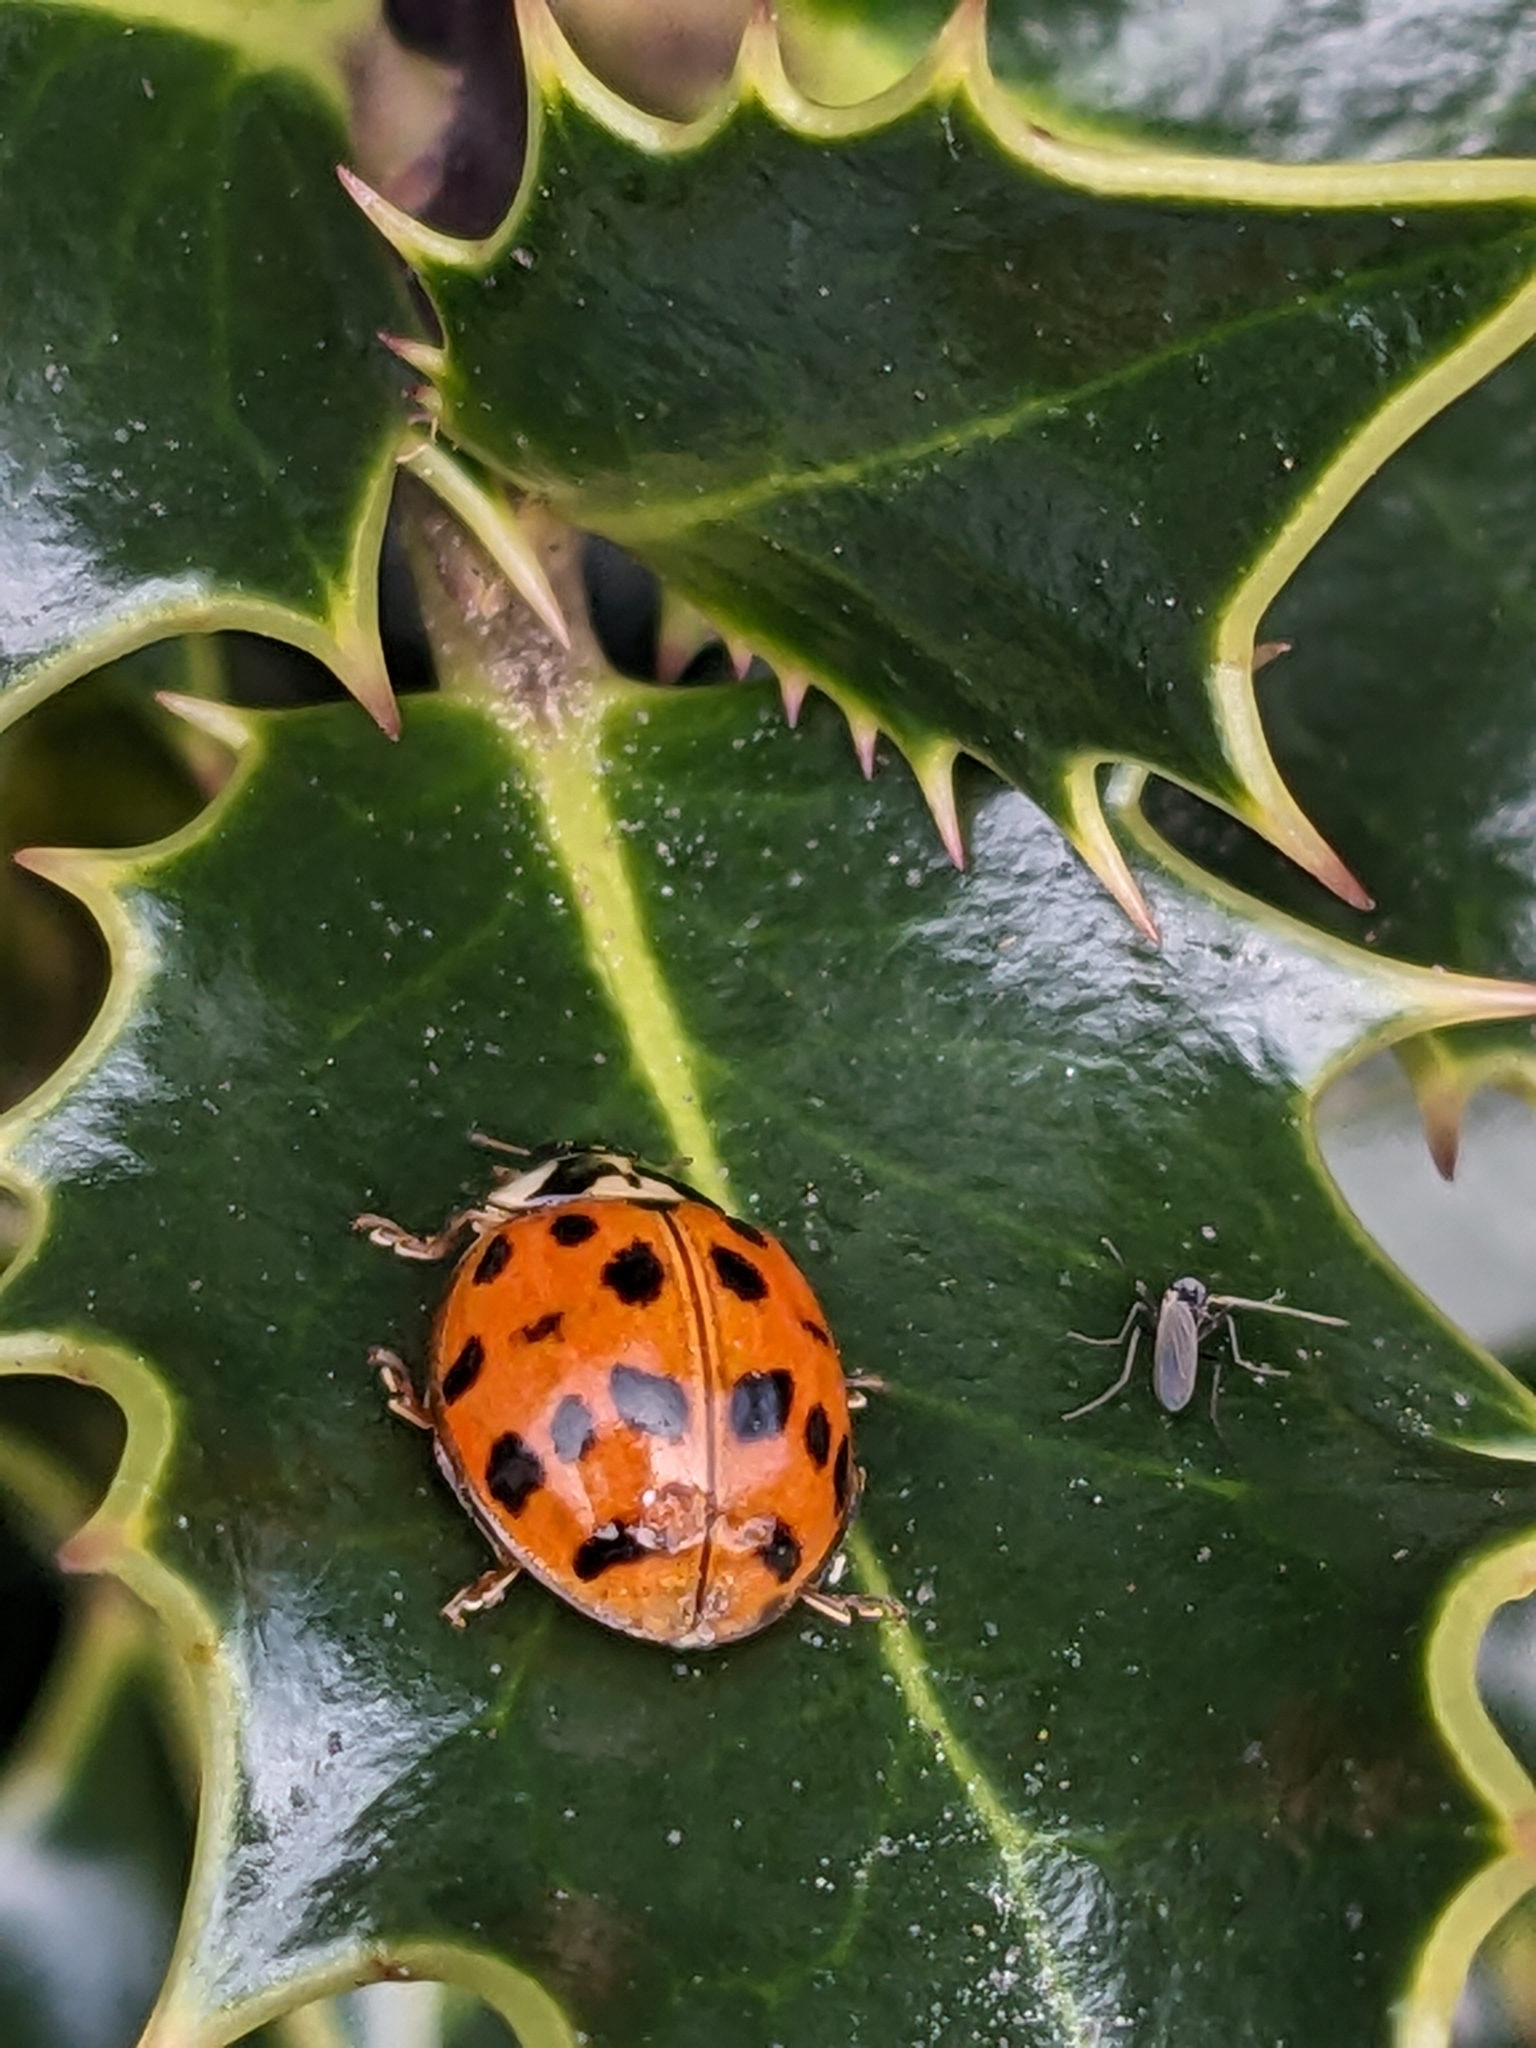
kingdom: Animalia
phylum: Arthropoda
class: Insecta
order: Coleoptera
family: Coccinellidae
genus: Harmonia
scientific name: Harmonia axyridis
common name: Harlequin ladybird
